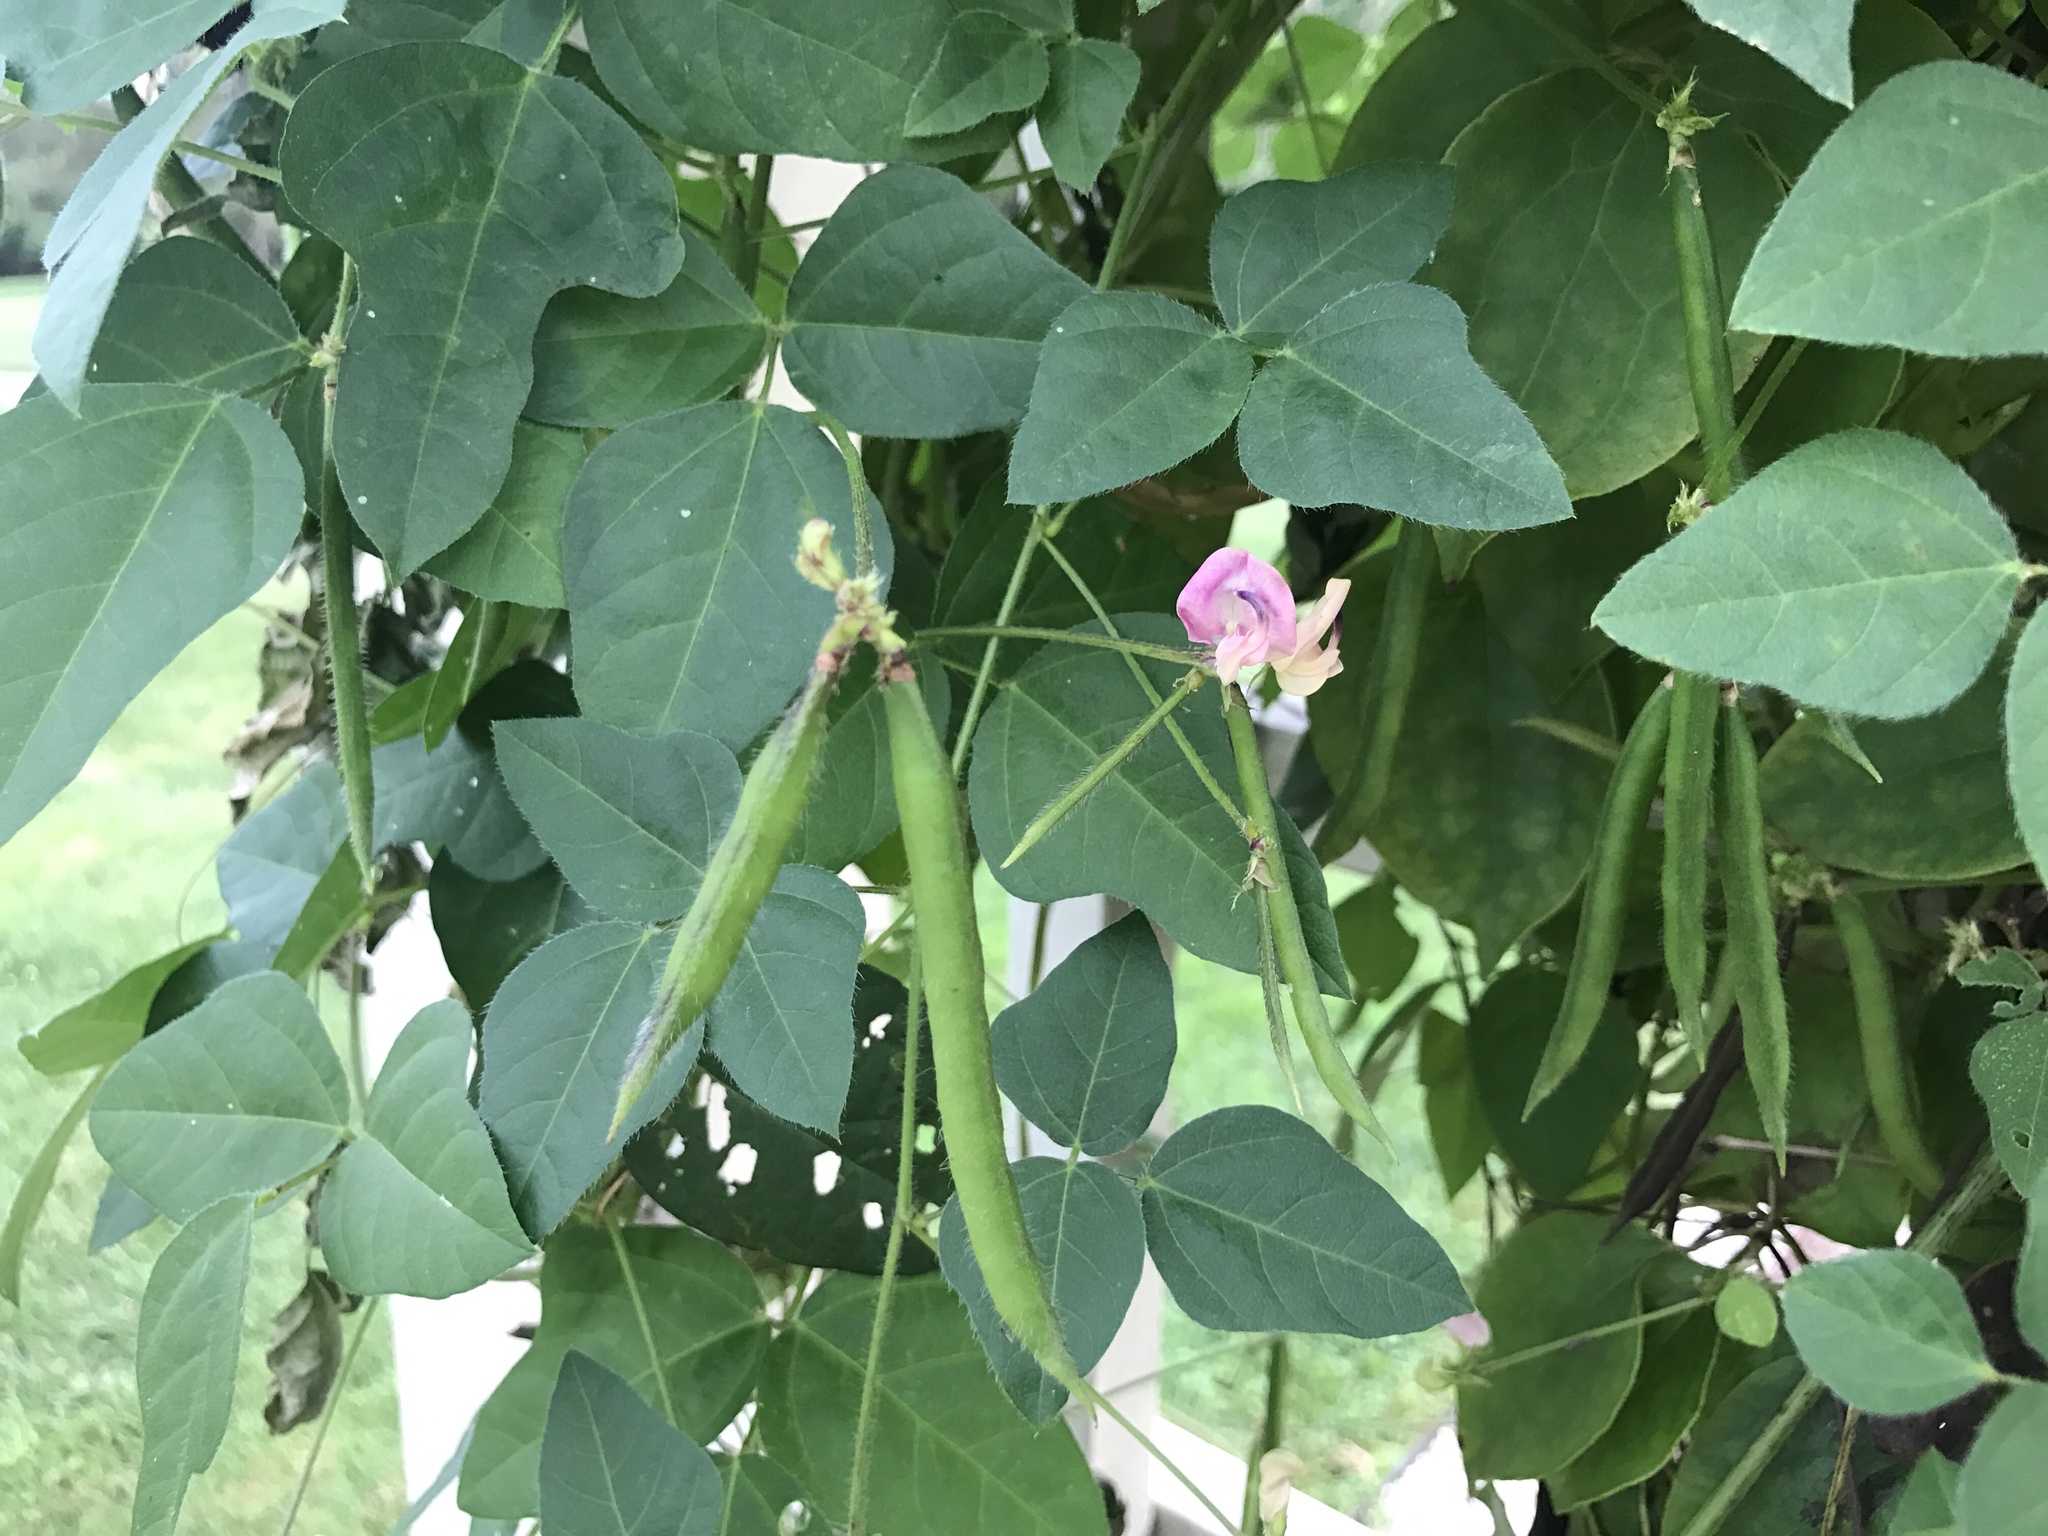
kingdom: Plantae
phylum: Tracheophyta
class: Magnoliopsida
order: Fabales
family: Fabaceae
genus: Strophostyles
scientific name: Strophostyles helvola
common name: Trailing wild bean
